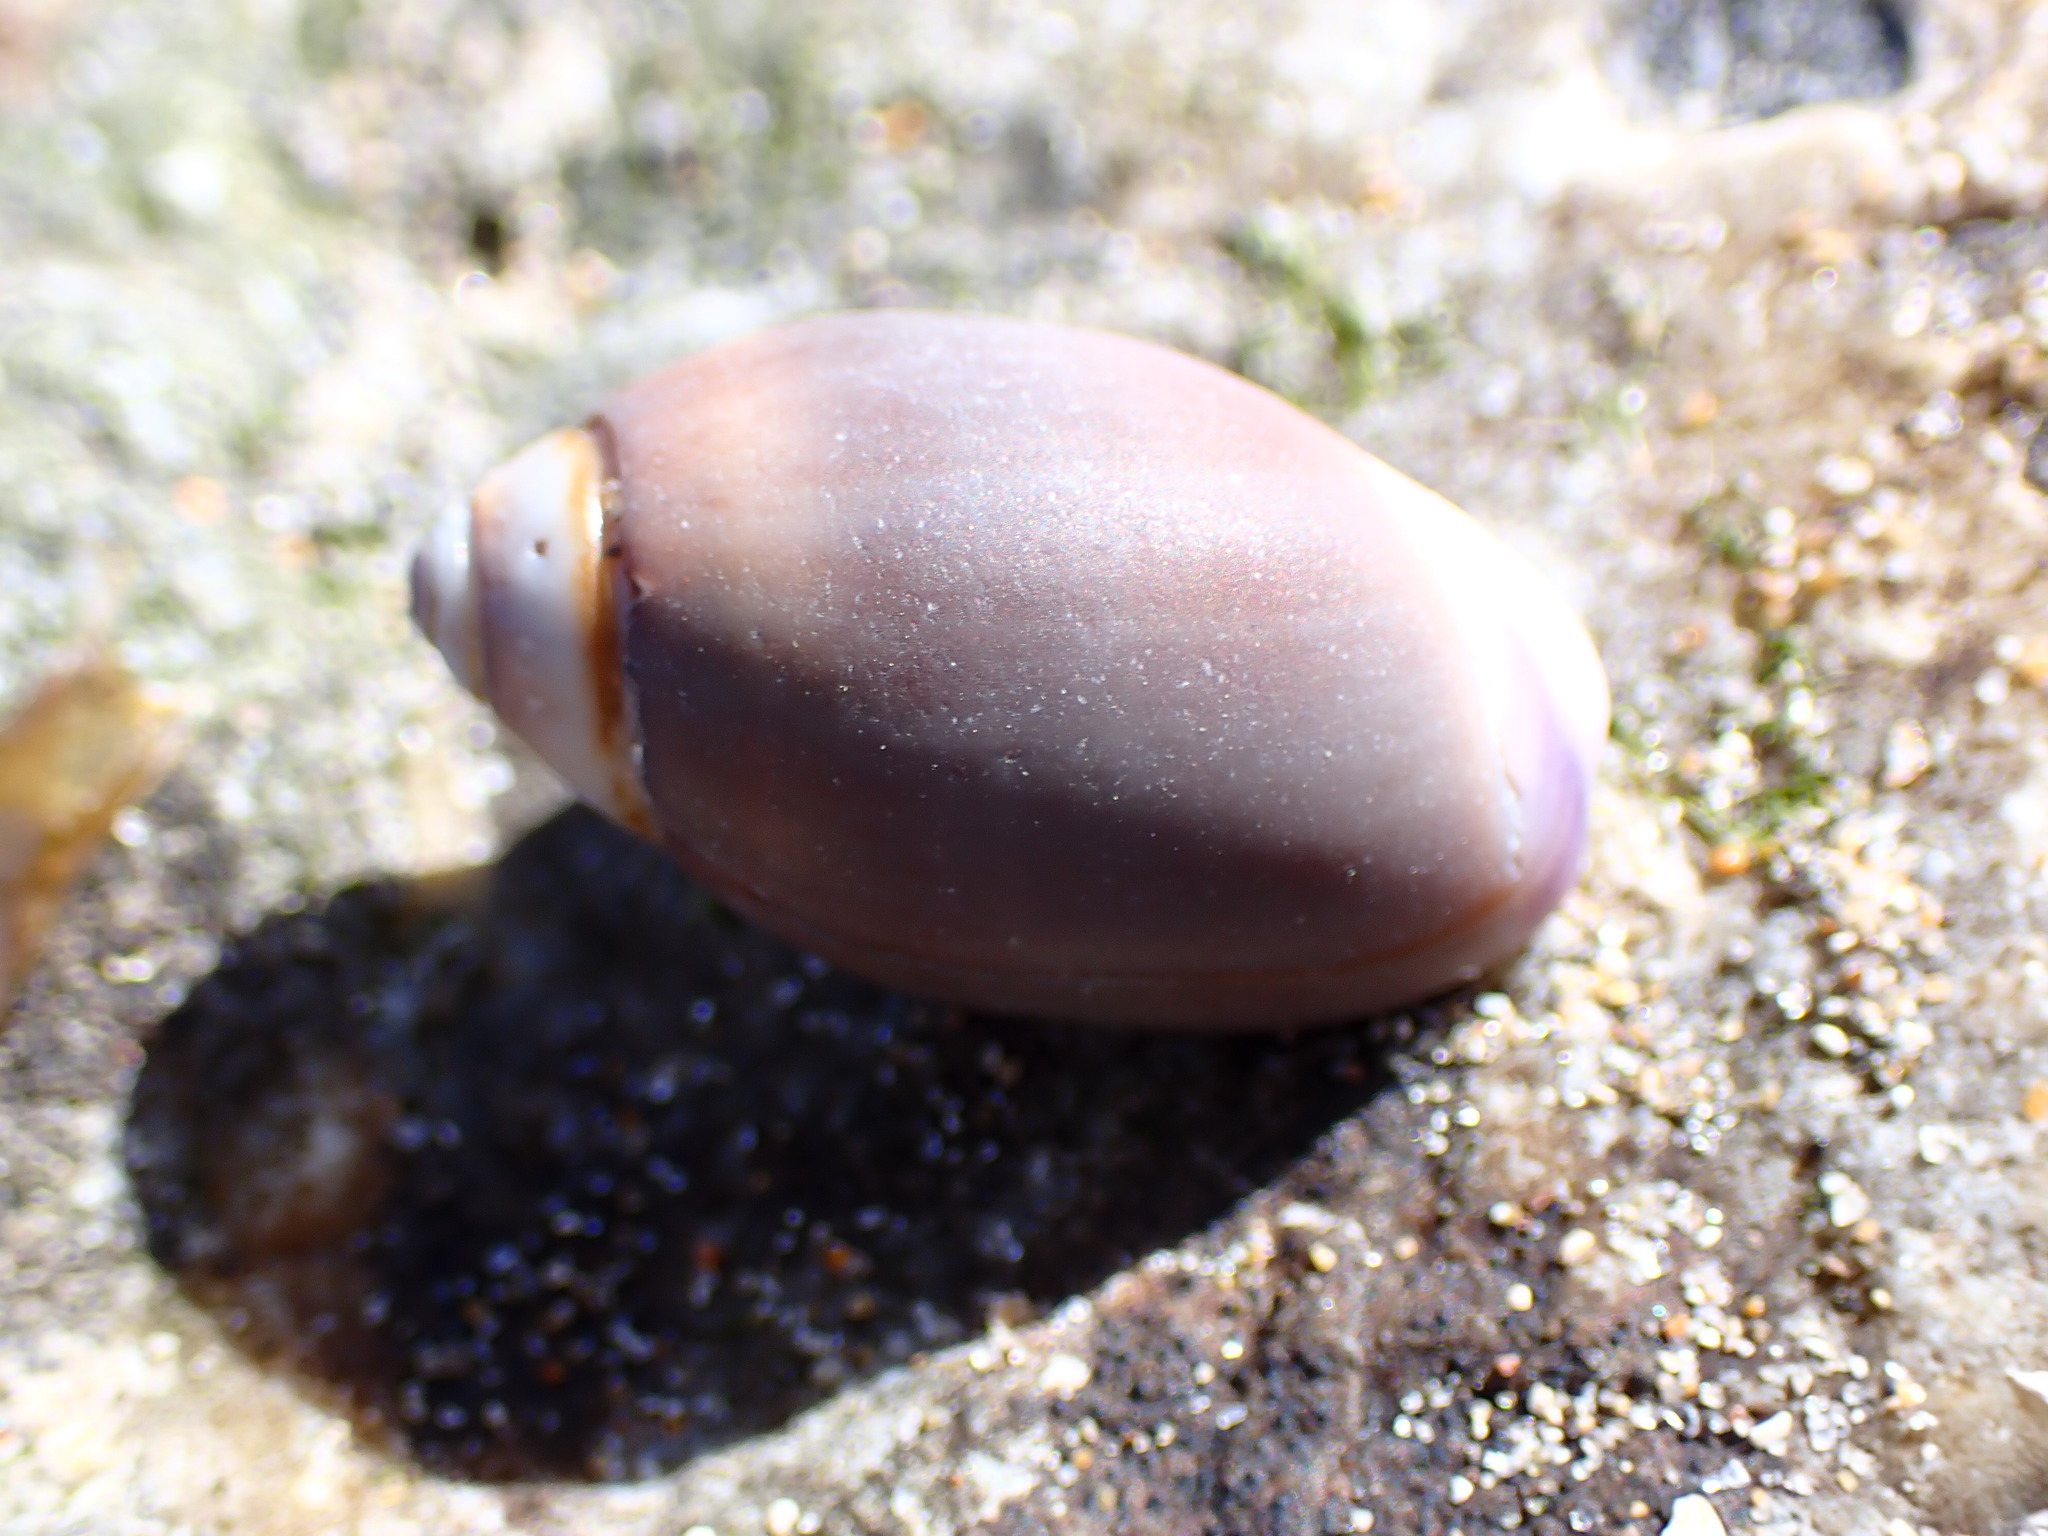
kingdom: Animalia
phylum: Mollusca
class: Gastropoda
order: Neogastropoda
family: Olividae
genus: Callianax
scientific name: Callianax biplicata
